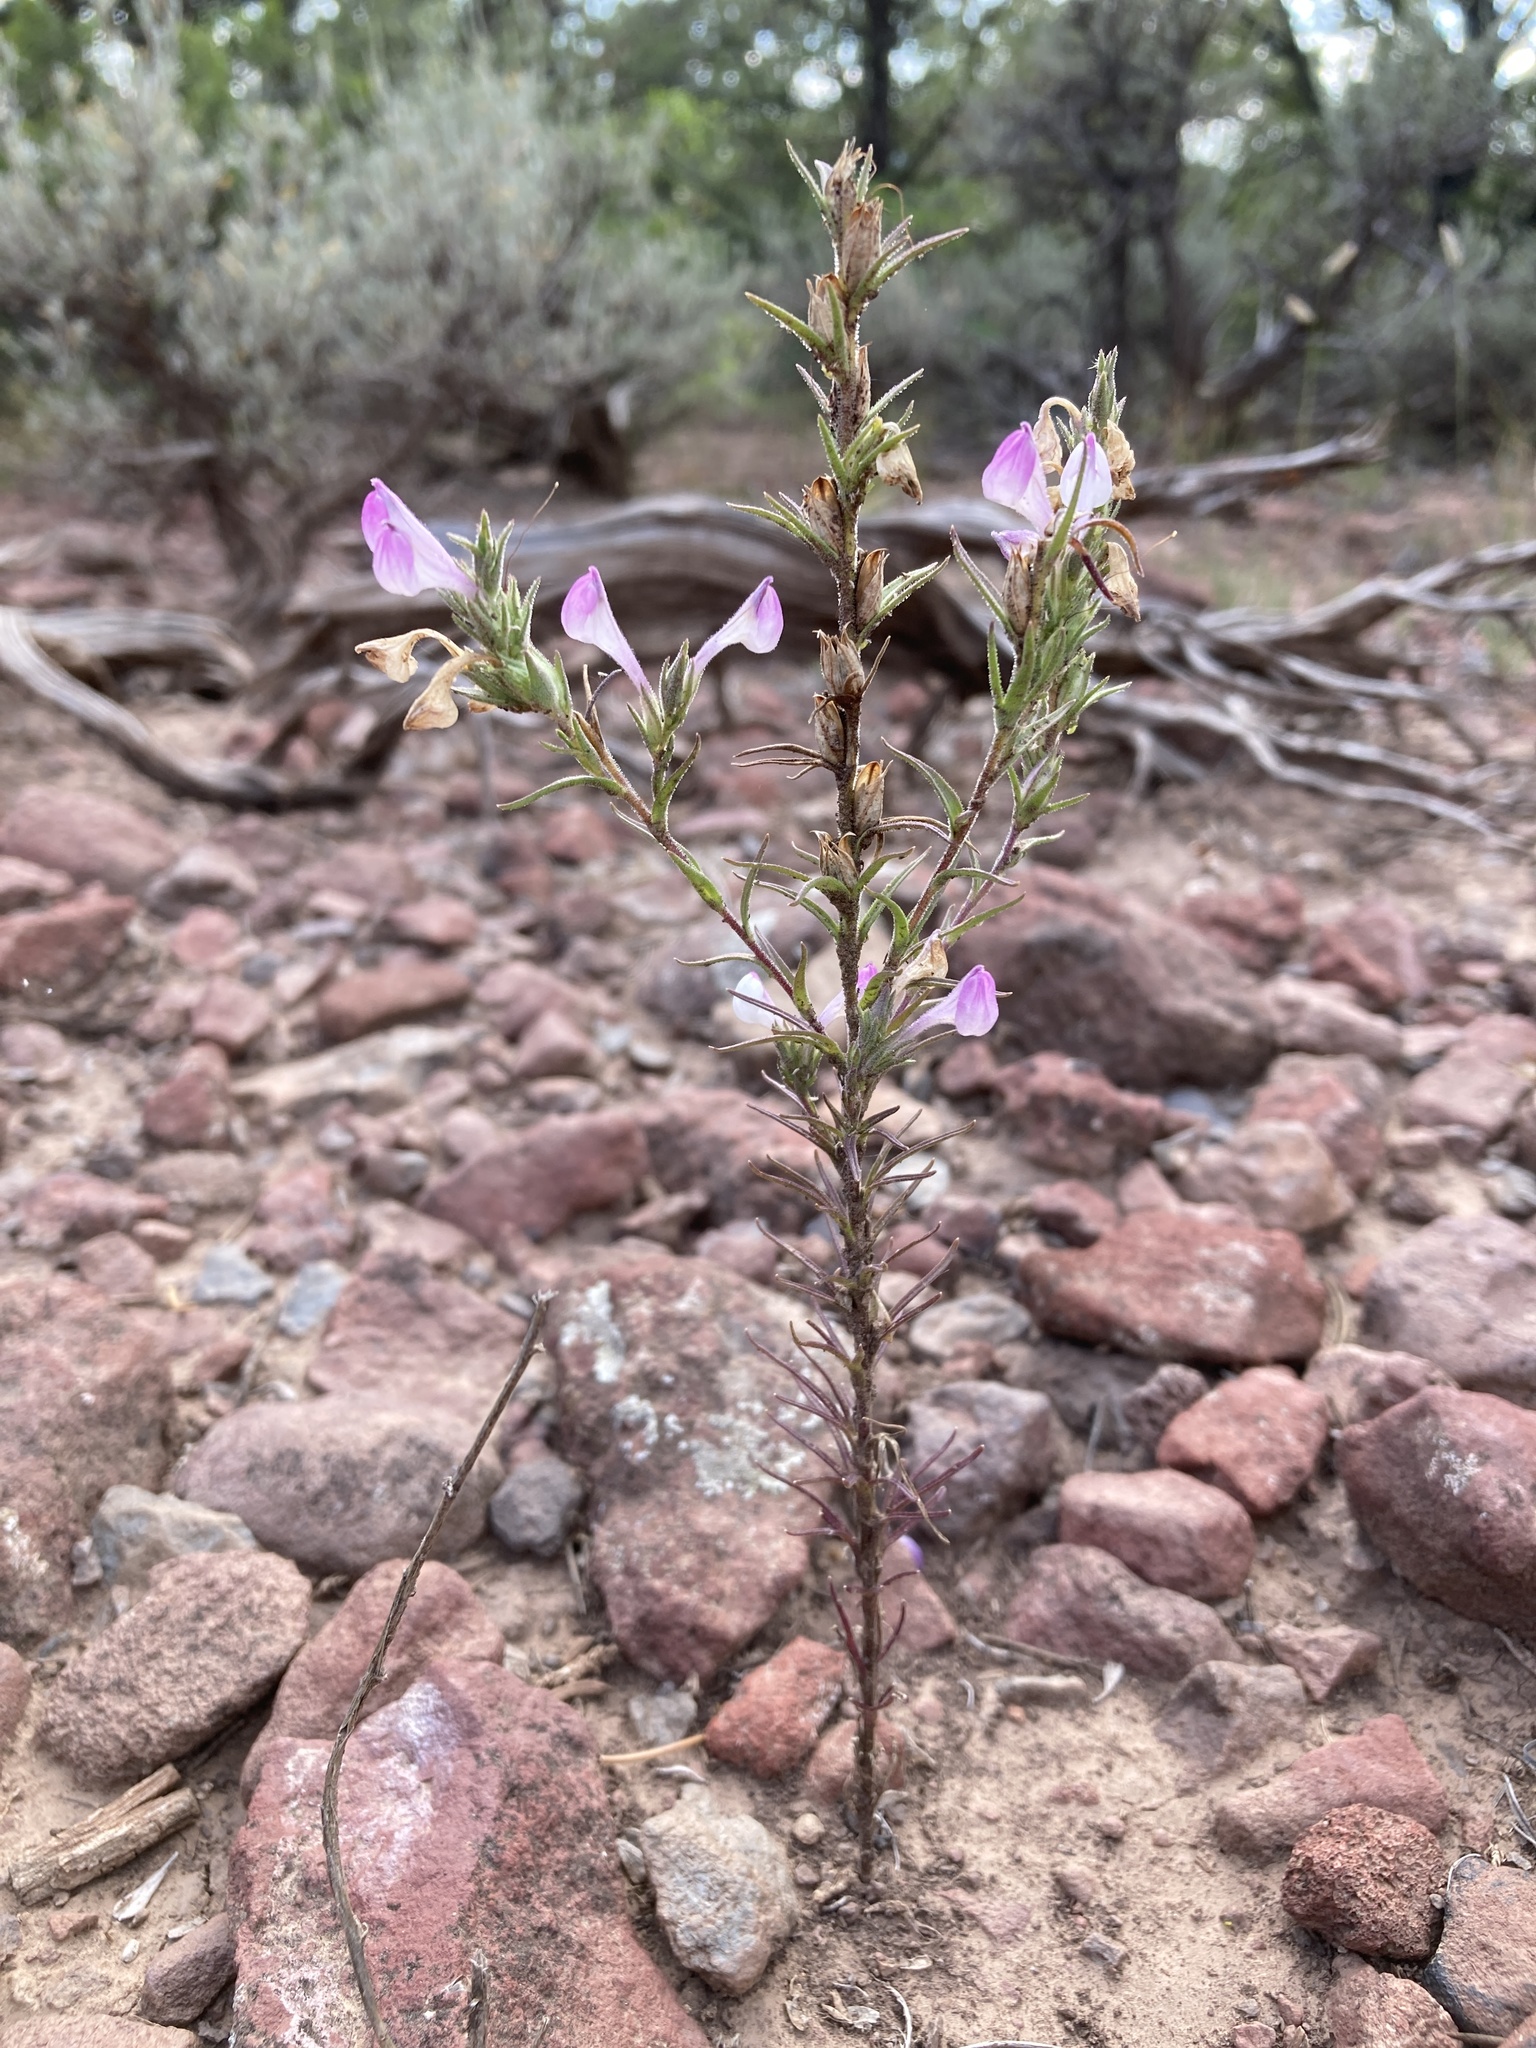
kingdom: Plantae
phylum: Tracheophyta
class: Magnoliopsida
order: Lamiales
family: Orobanchaceae
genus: Orthocarpus
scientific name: Orthocarpus purpureoalbus
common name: Violet owl-clover
